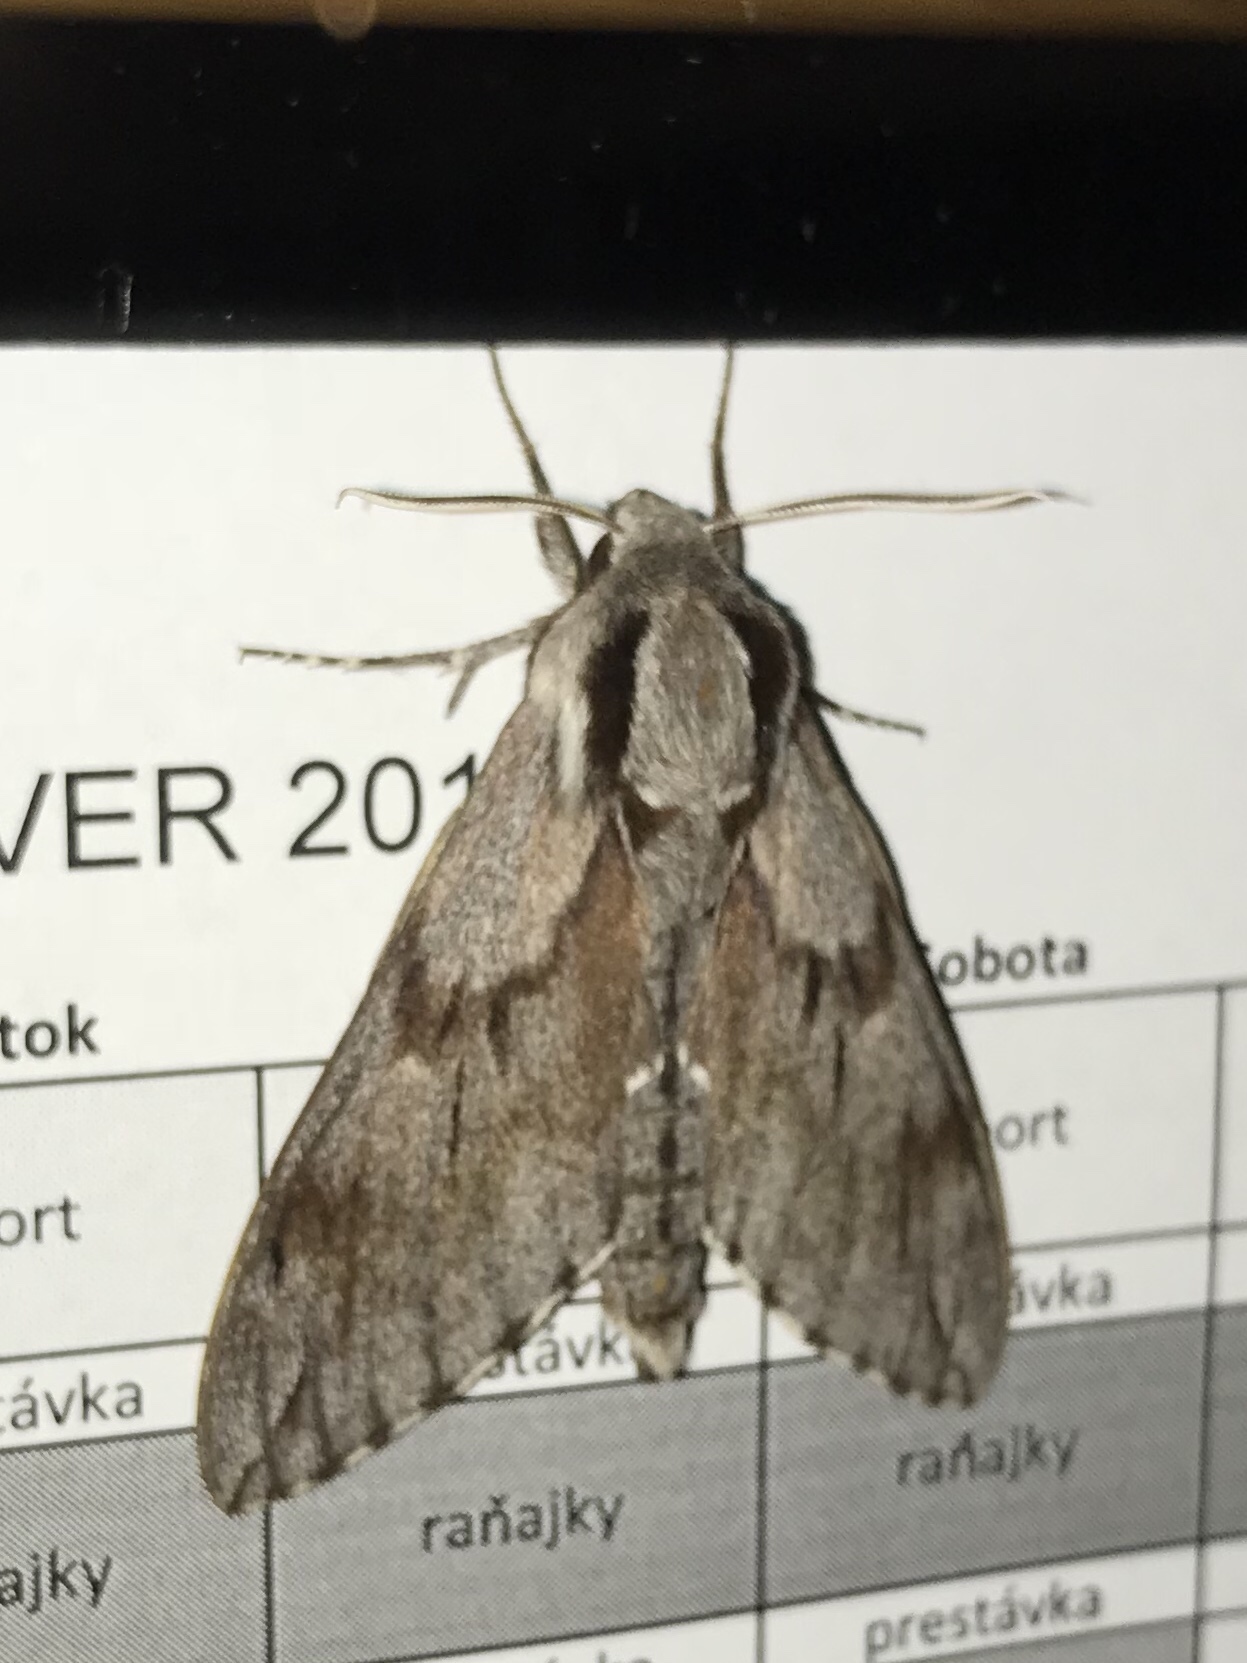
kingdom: Animalia
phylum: Arthropoda
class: Insecta
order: Lepidoptera
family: Sphingidae
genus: Sphinx
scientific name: Sphinx pinastri
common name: Pine hawk-moth
